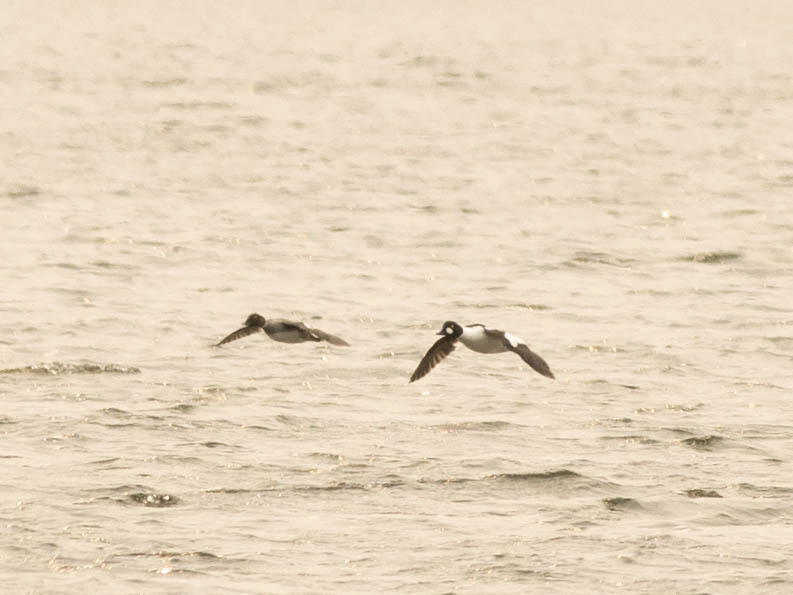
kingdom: Animalia
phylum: Chordata
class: Aves
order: Anseriformes
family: Anatidae
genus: Bucephala
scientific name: Bucephala clangula
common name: Common goldeneye
